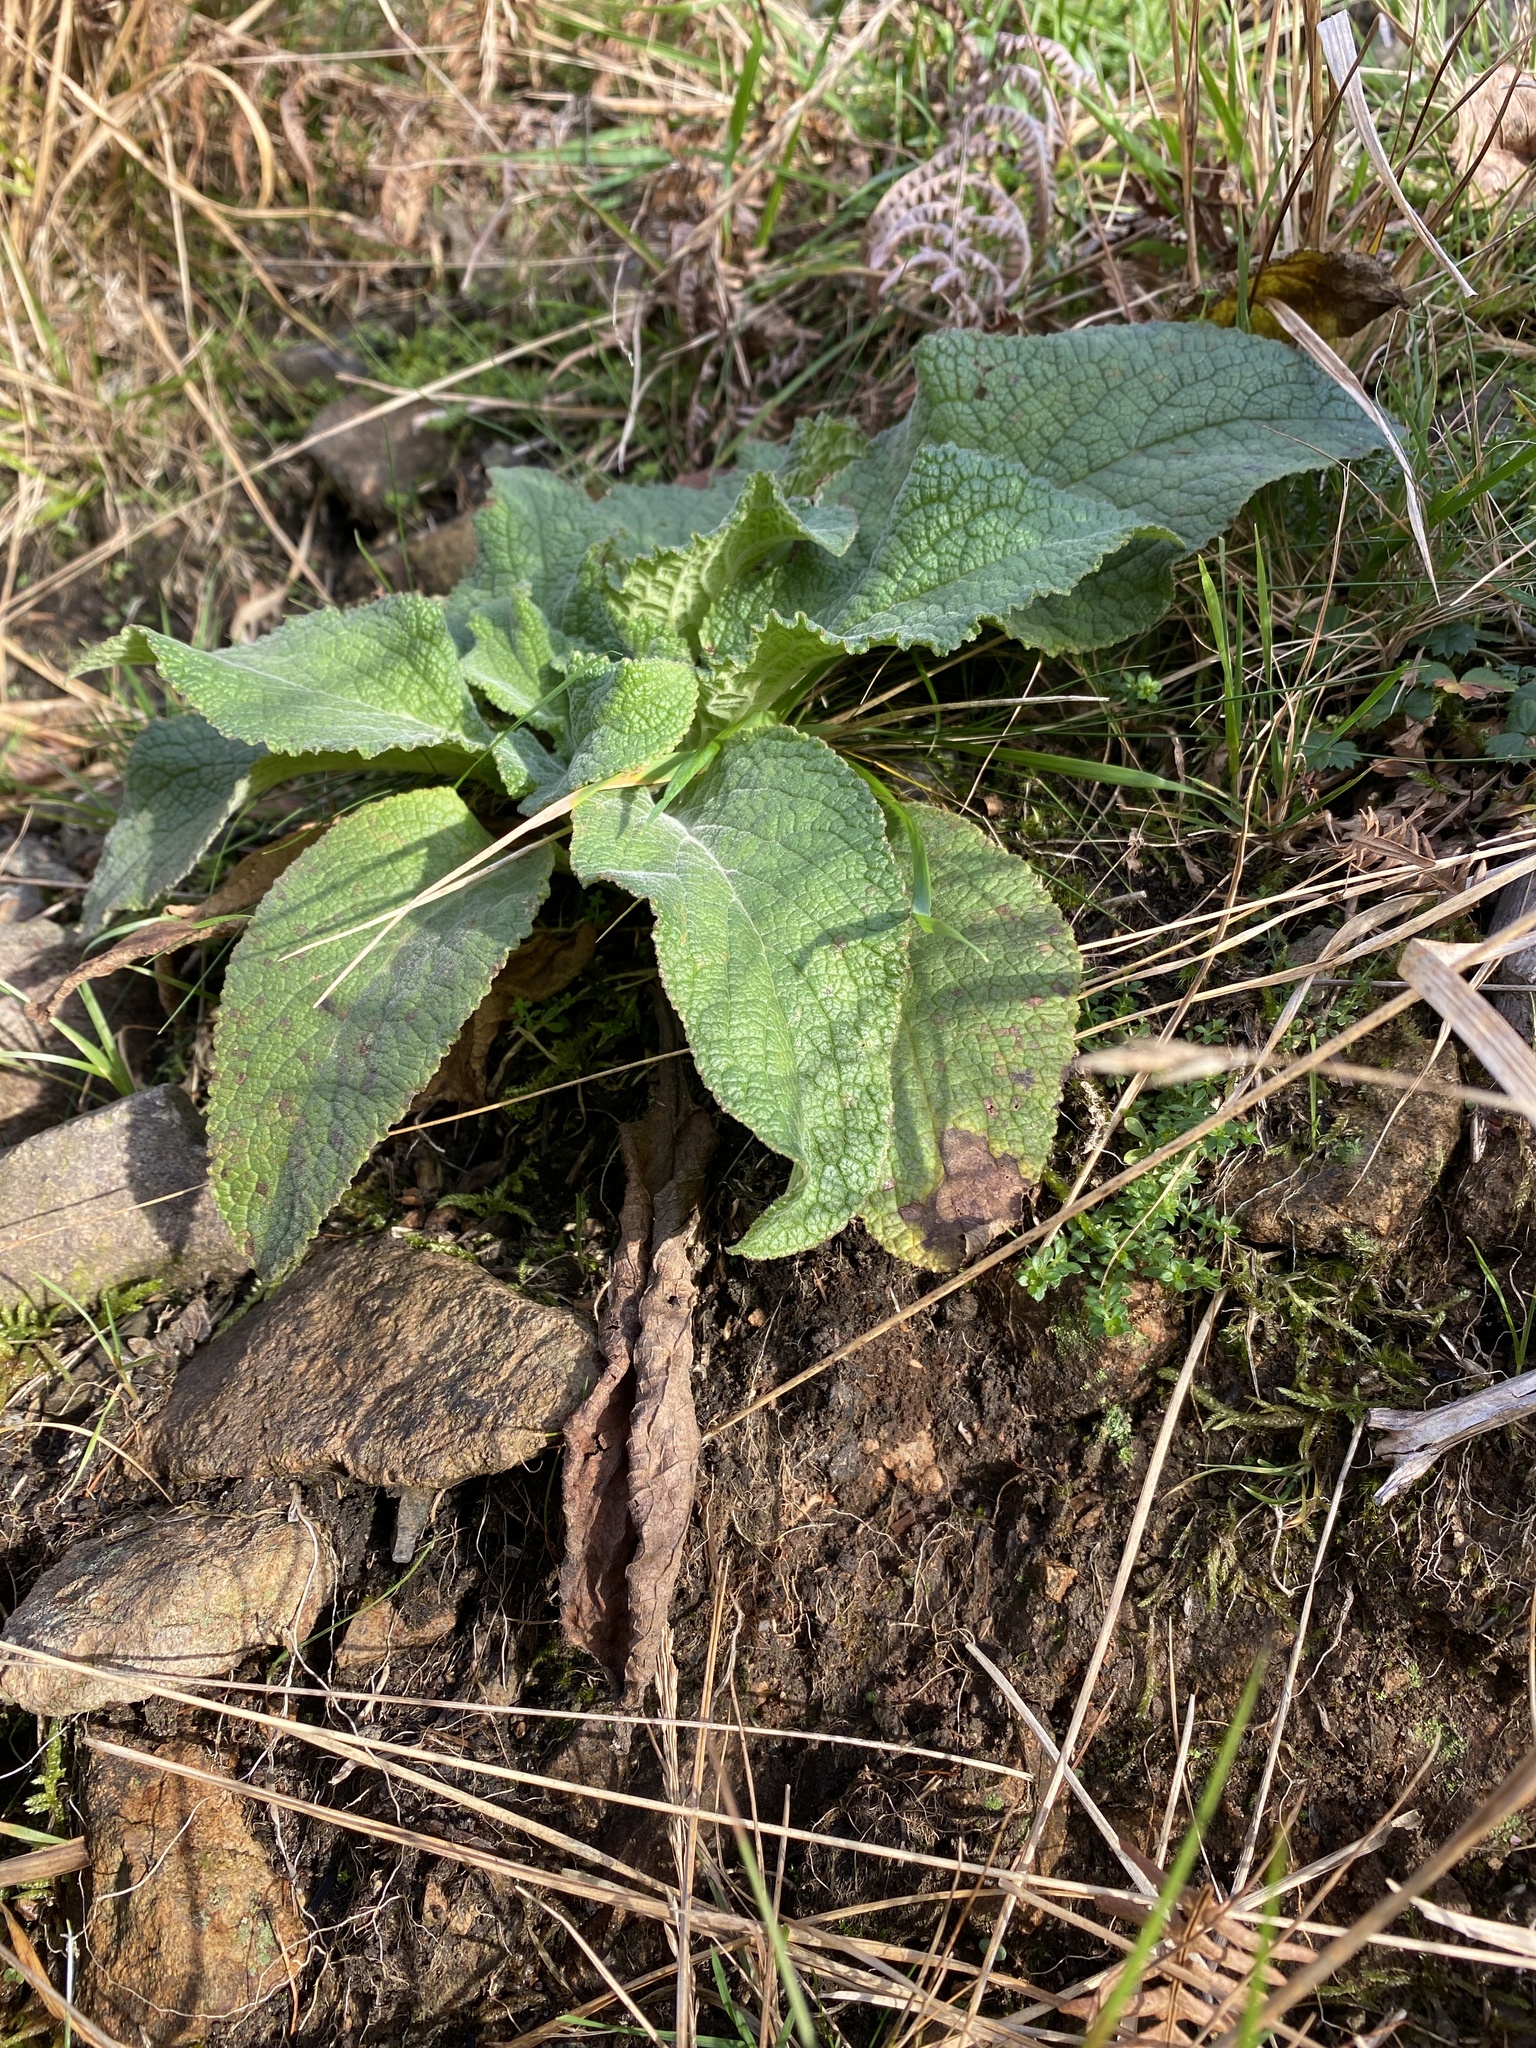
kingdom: Plantae
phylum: Tracheophyta
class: Magnoliopsida
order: Lamiales
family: Plantaginaceae
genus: Digitalis
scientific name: Digitalis purpurea
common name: Foxglove
